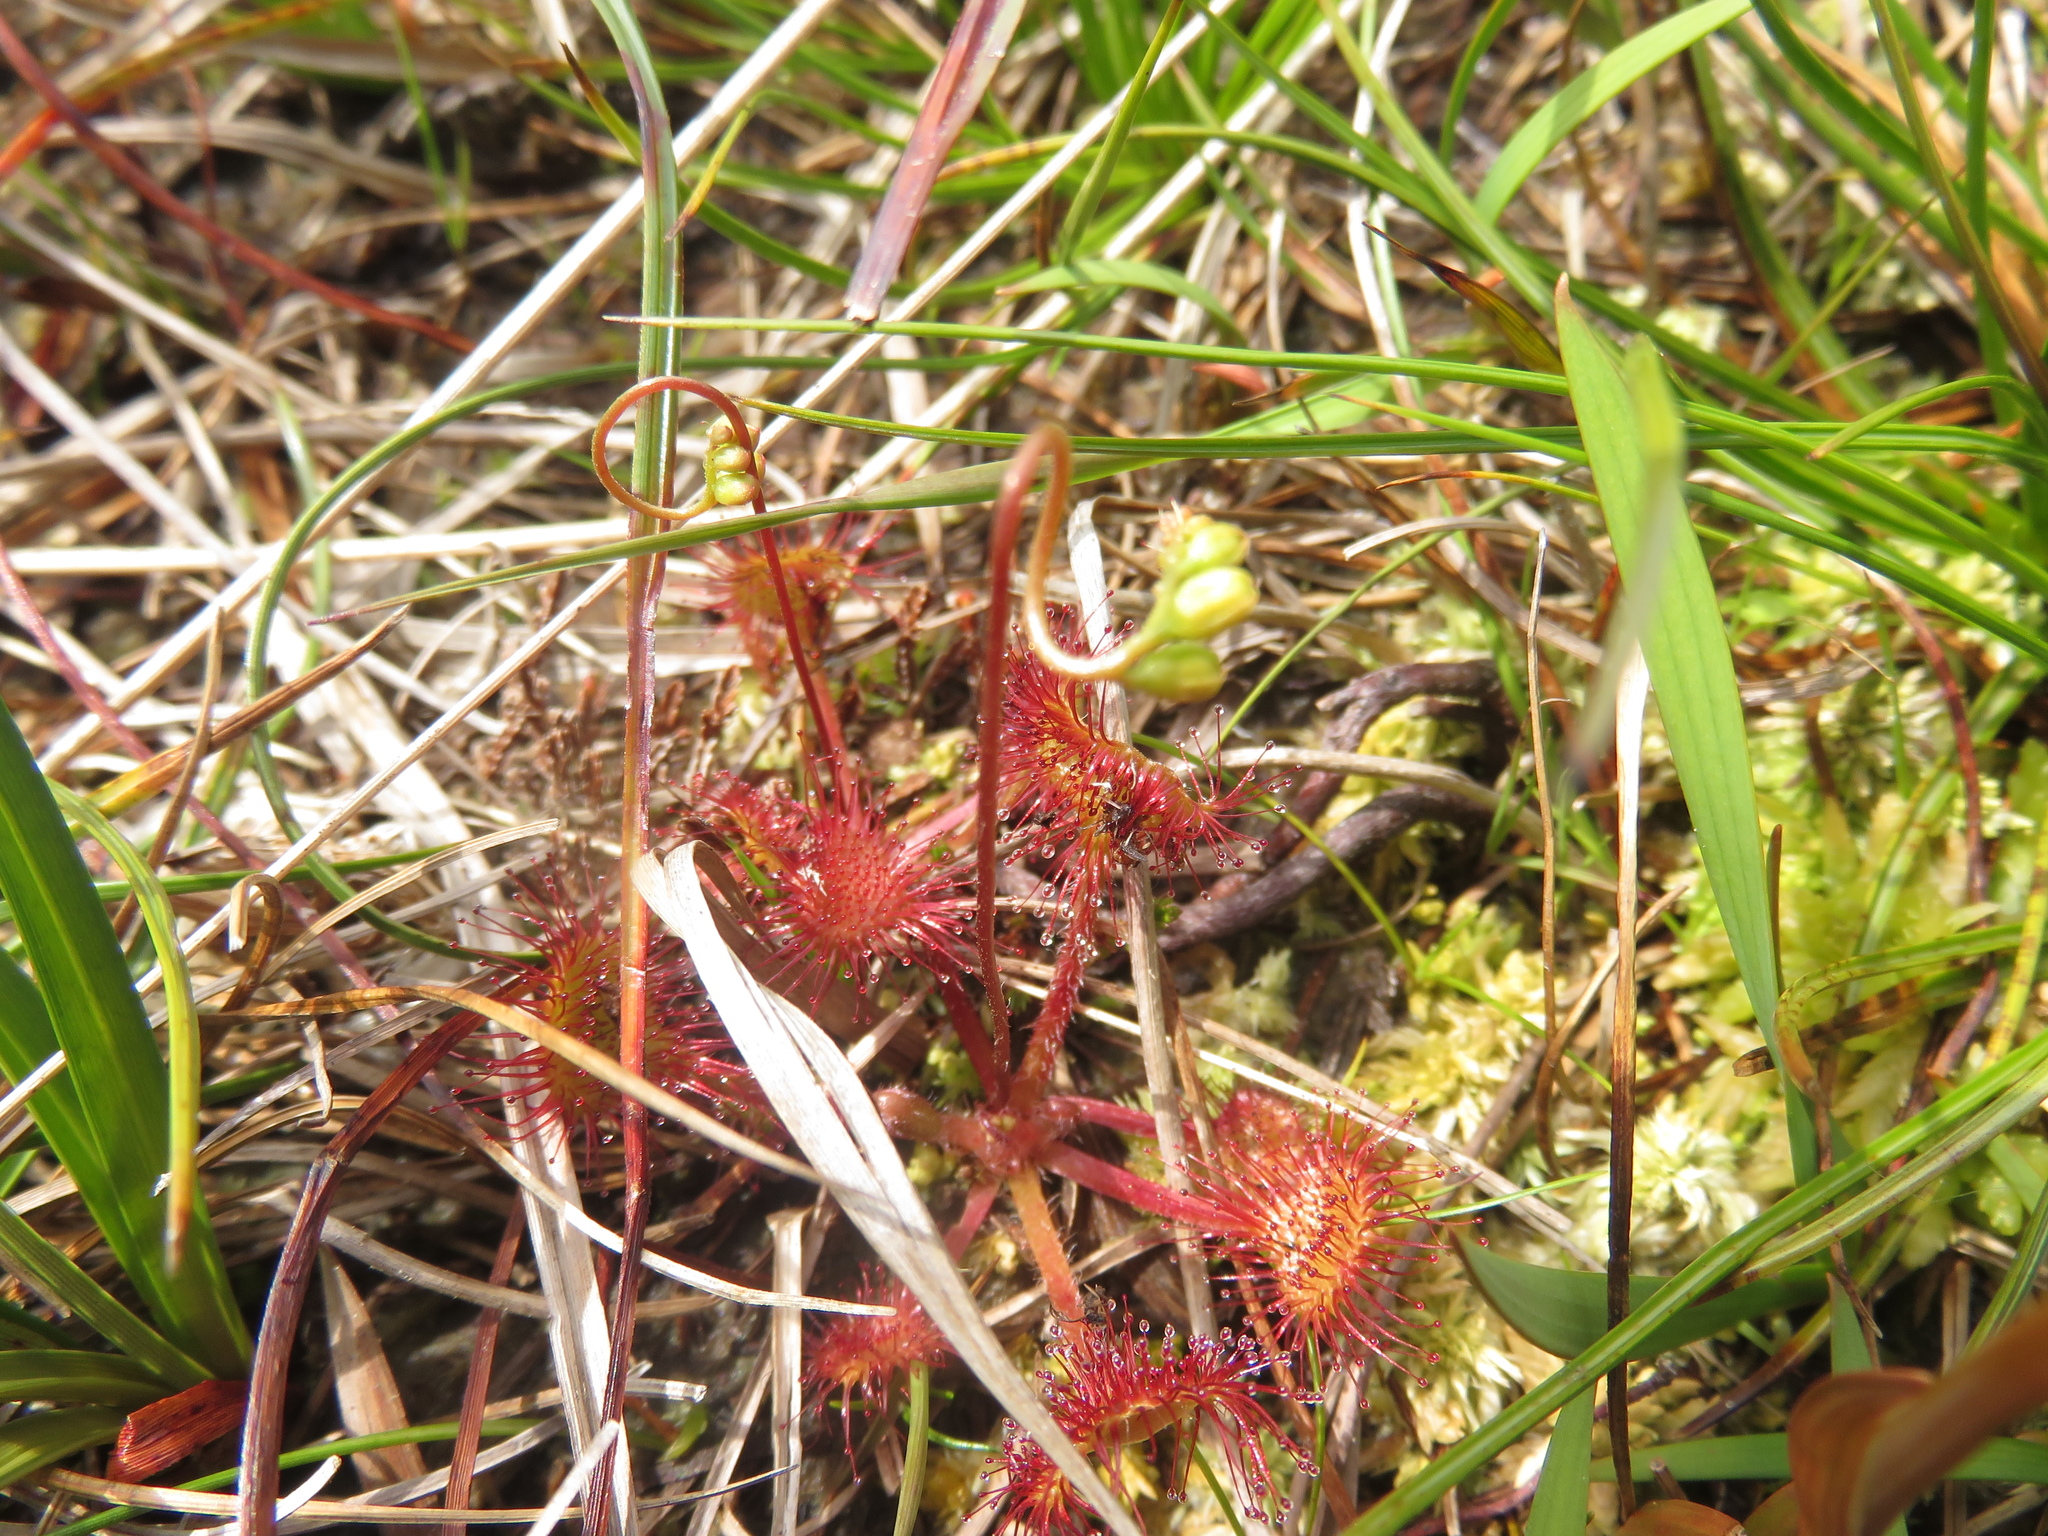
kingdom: Plantae
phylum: Tracheophyta
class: Magnoliopsida
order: Caryophyllales
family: Droseraceae
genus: Drosera
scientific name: Drosera rotundifolia
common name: Round-leaved sundew
